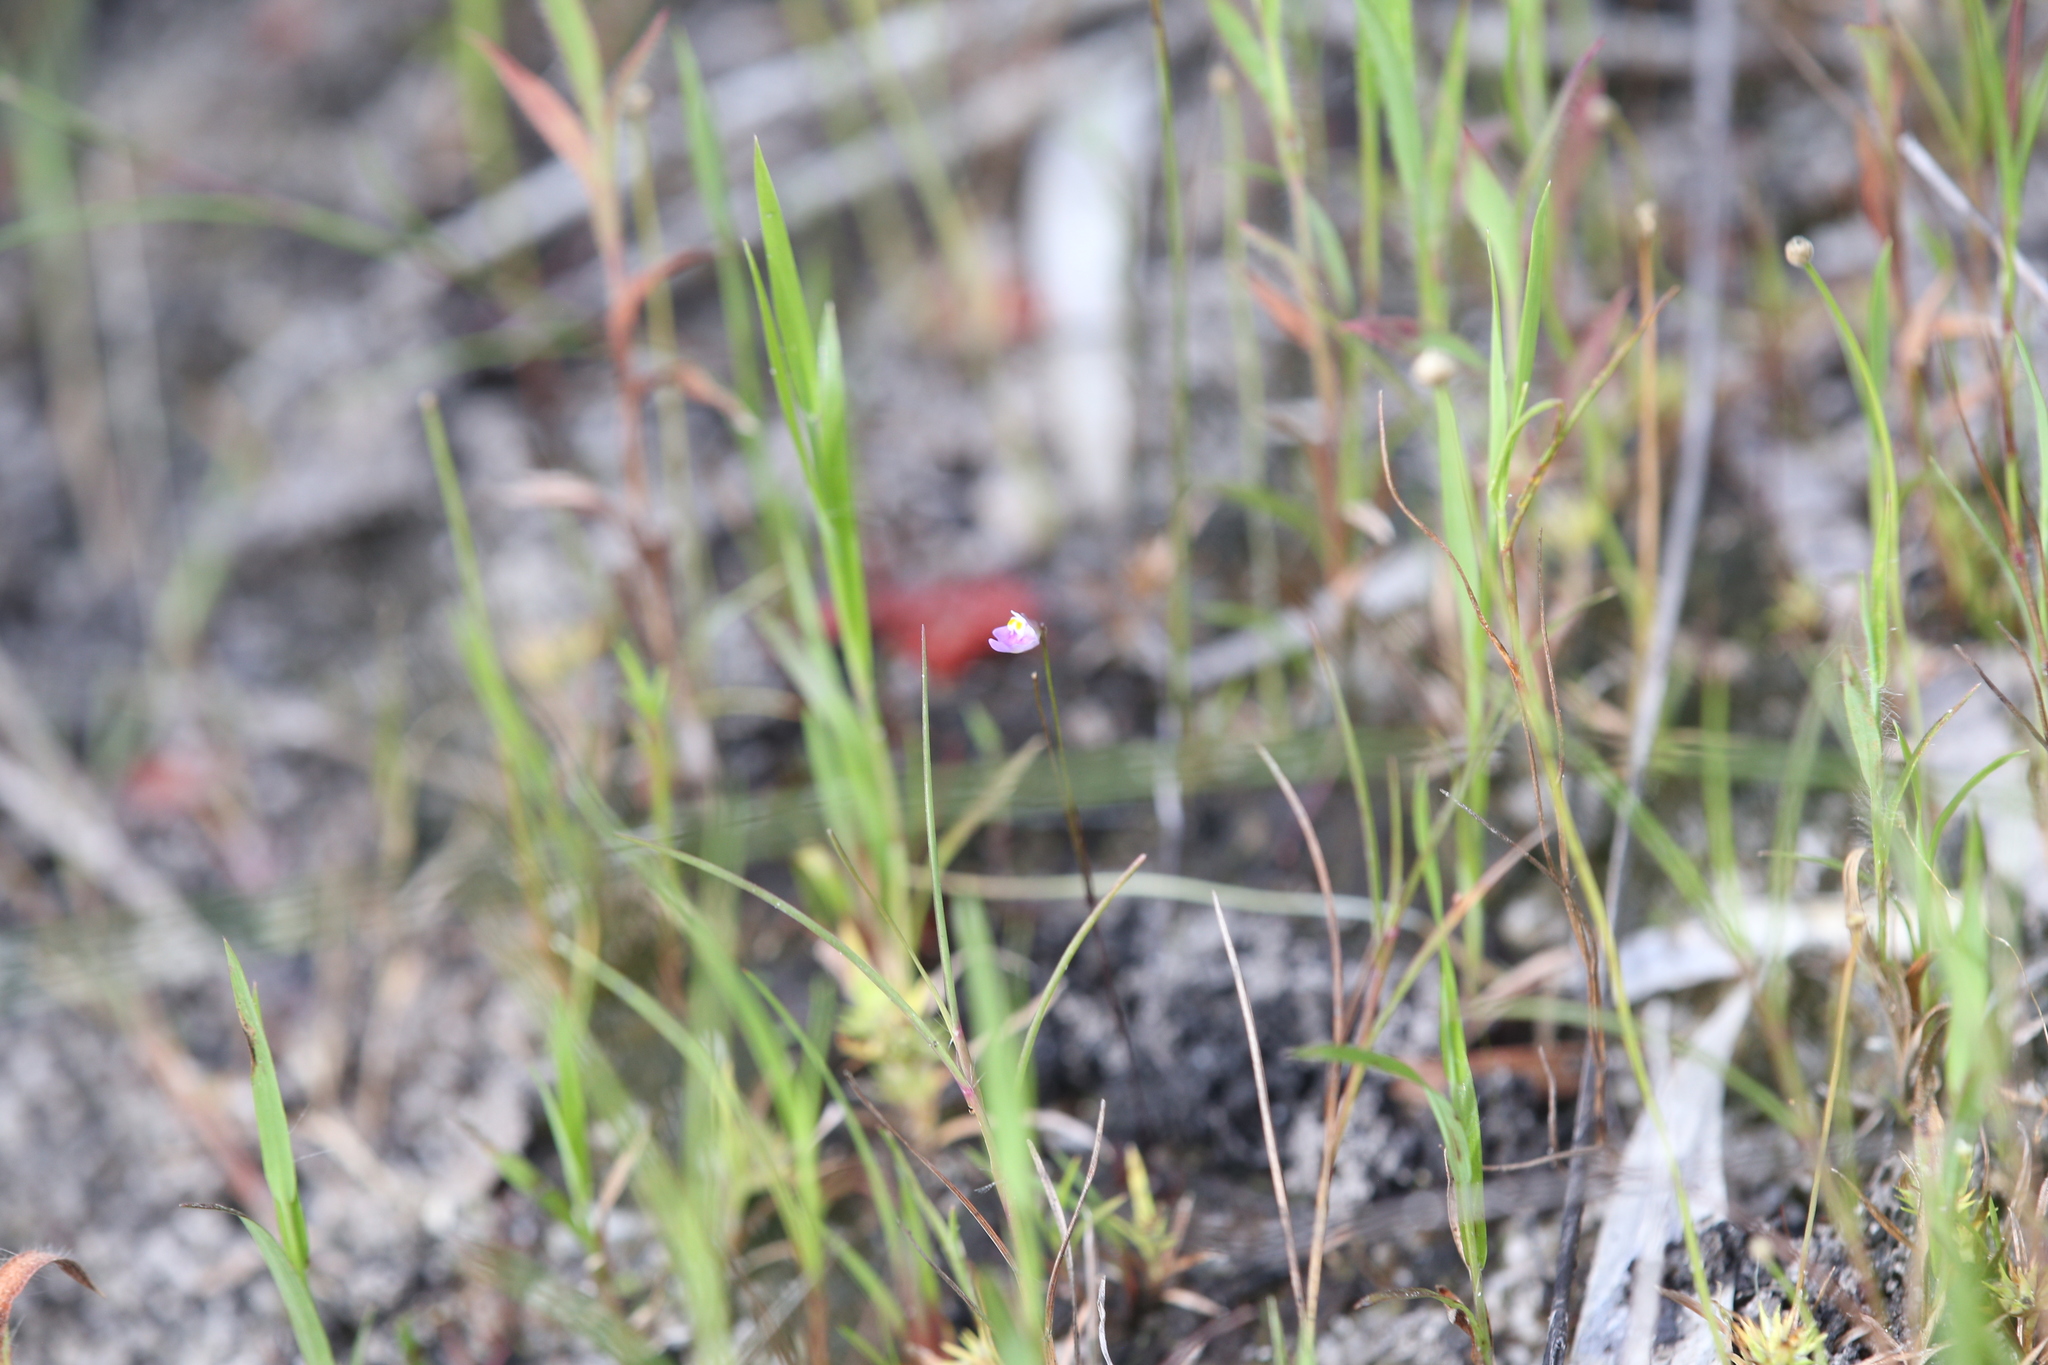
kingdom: Plantae
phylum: Tracheophyta
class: Magnoliopsida
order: Lamiales
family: Lentibulariaceae
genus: Utricularia
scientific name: Utricularia geoffrayi
